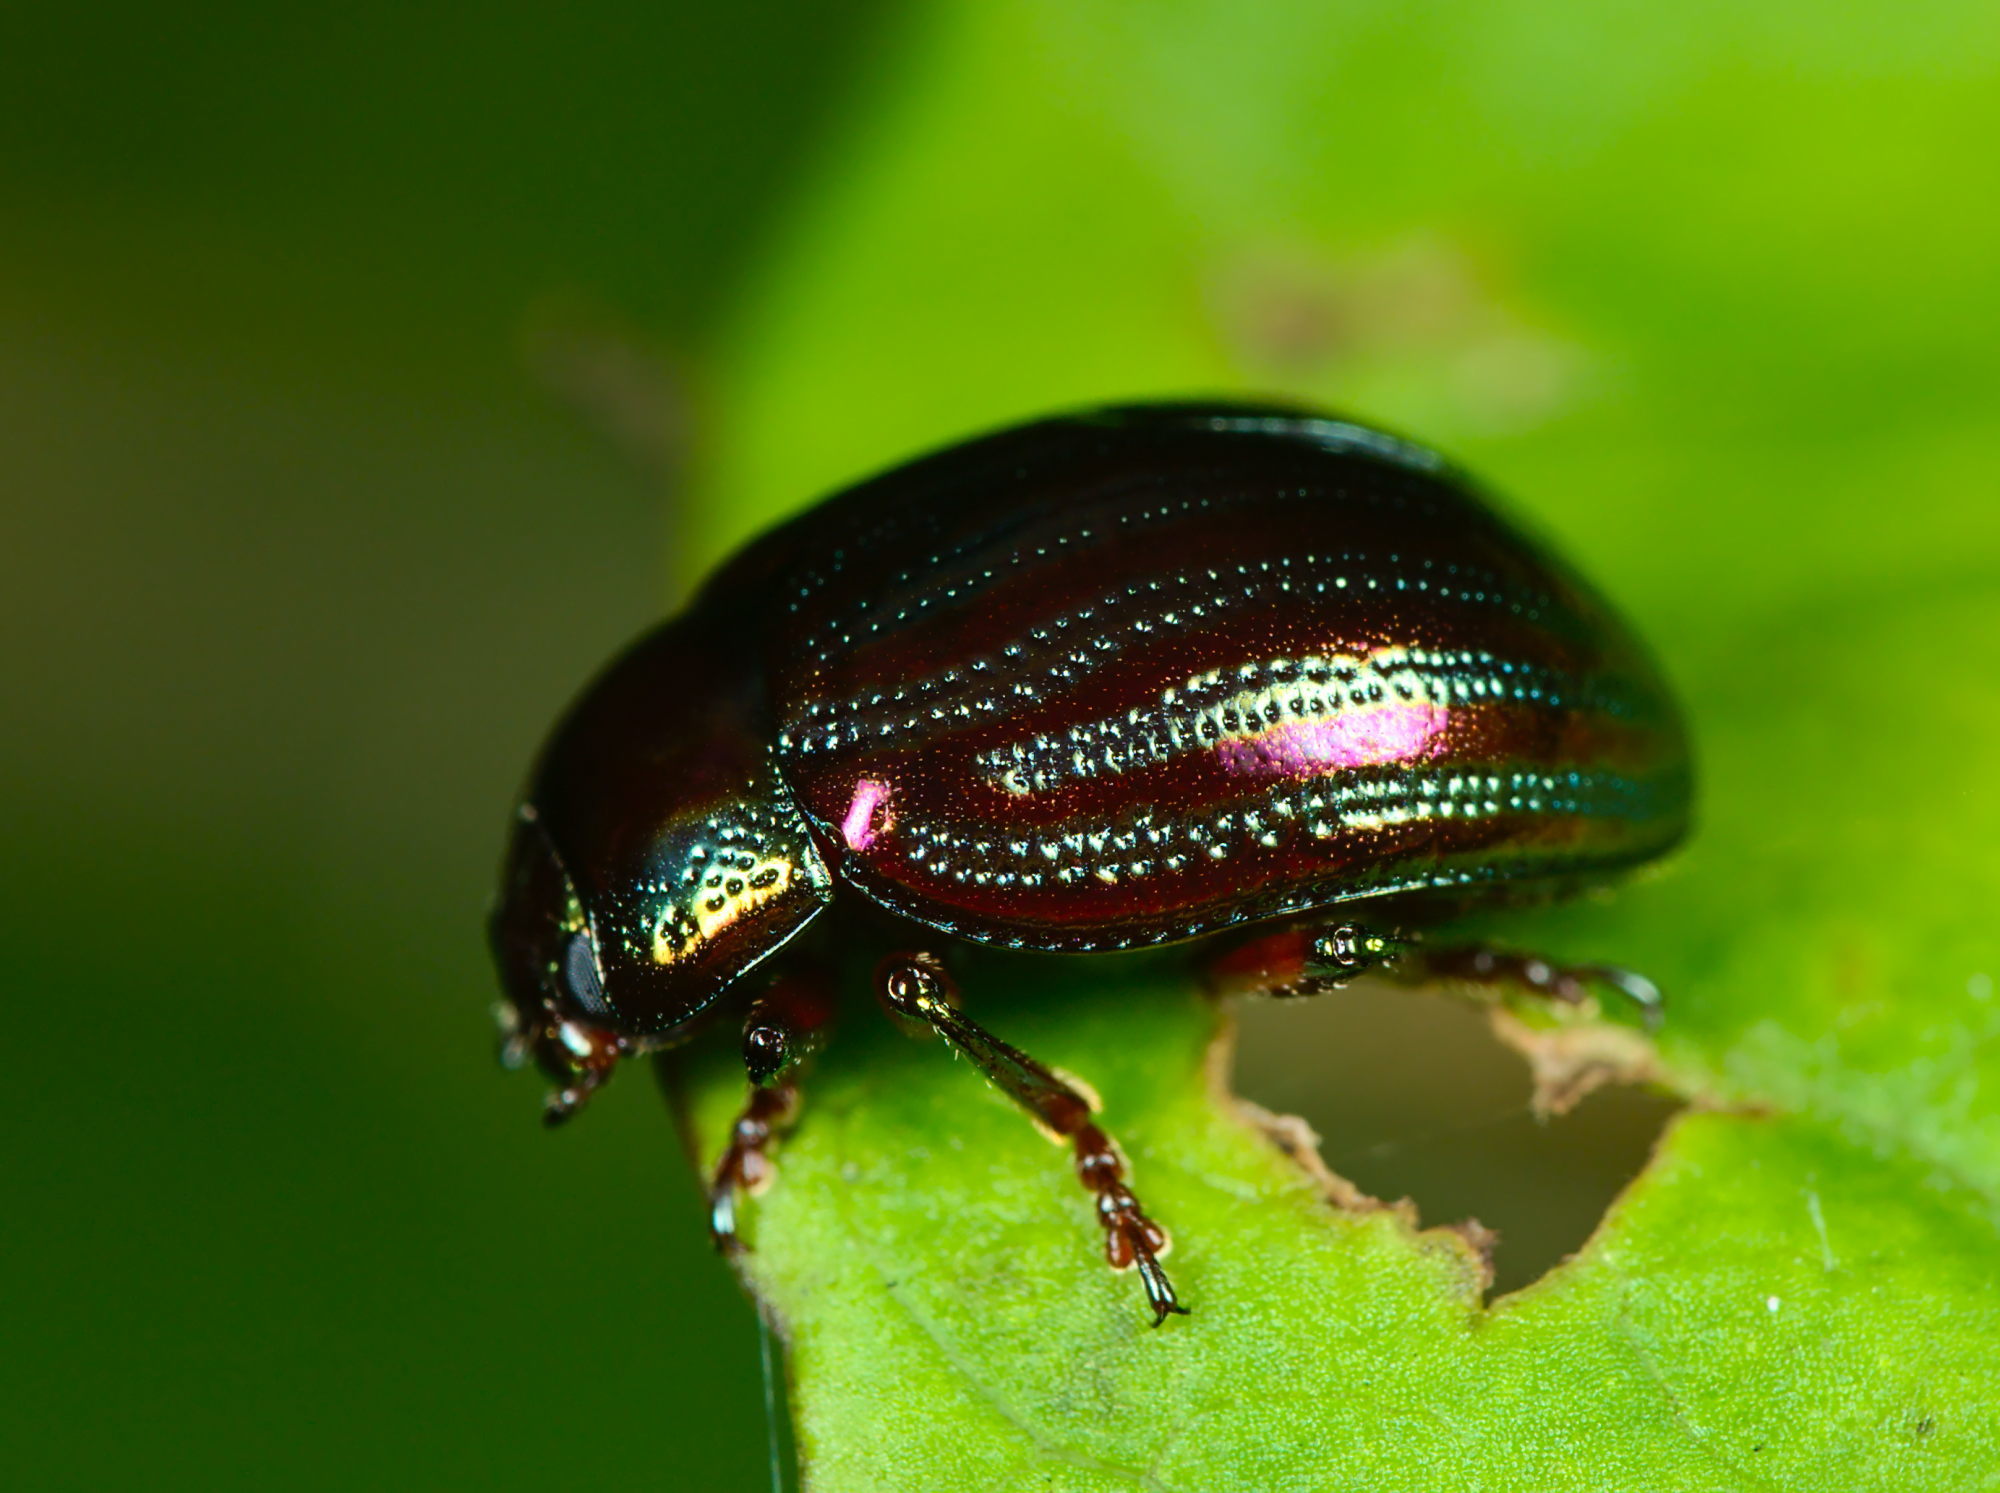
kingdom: Animalia
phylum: Arthropoda
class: Insecta
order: Coleoptera
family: Chrysomelidae
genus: Chrysolina
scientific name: Chrysolina americana
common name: Rosemary beetle
